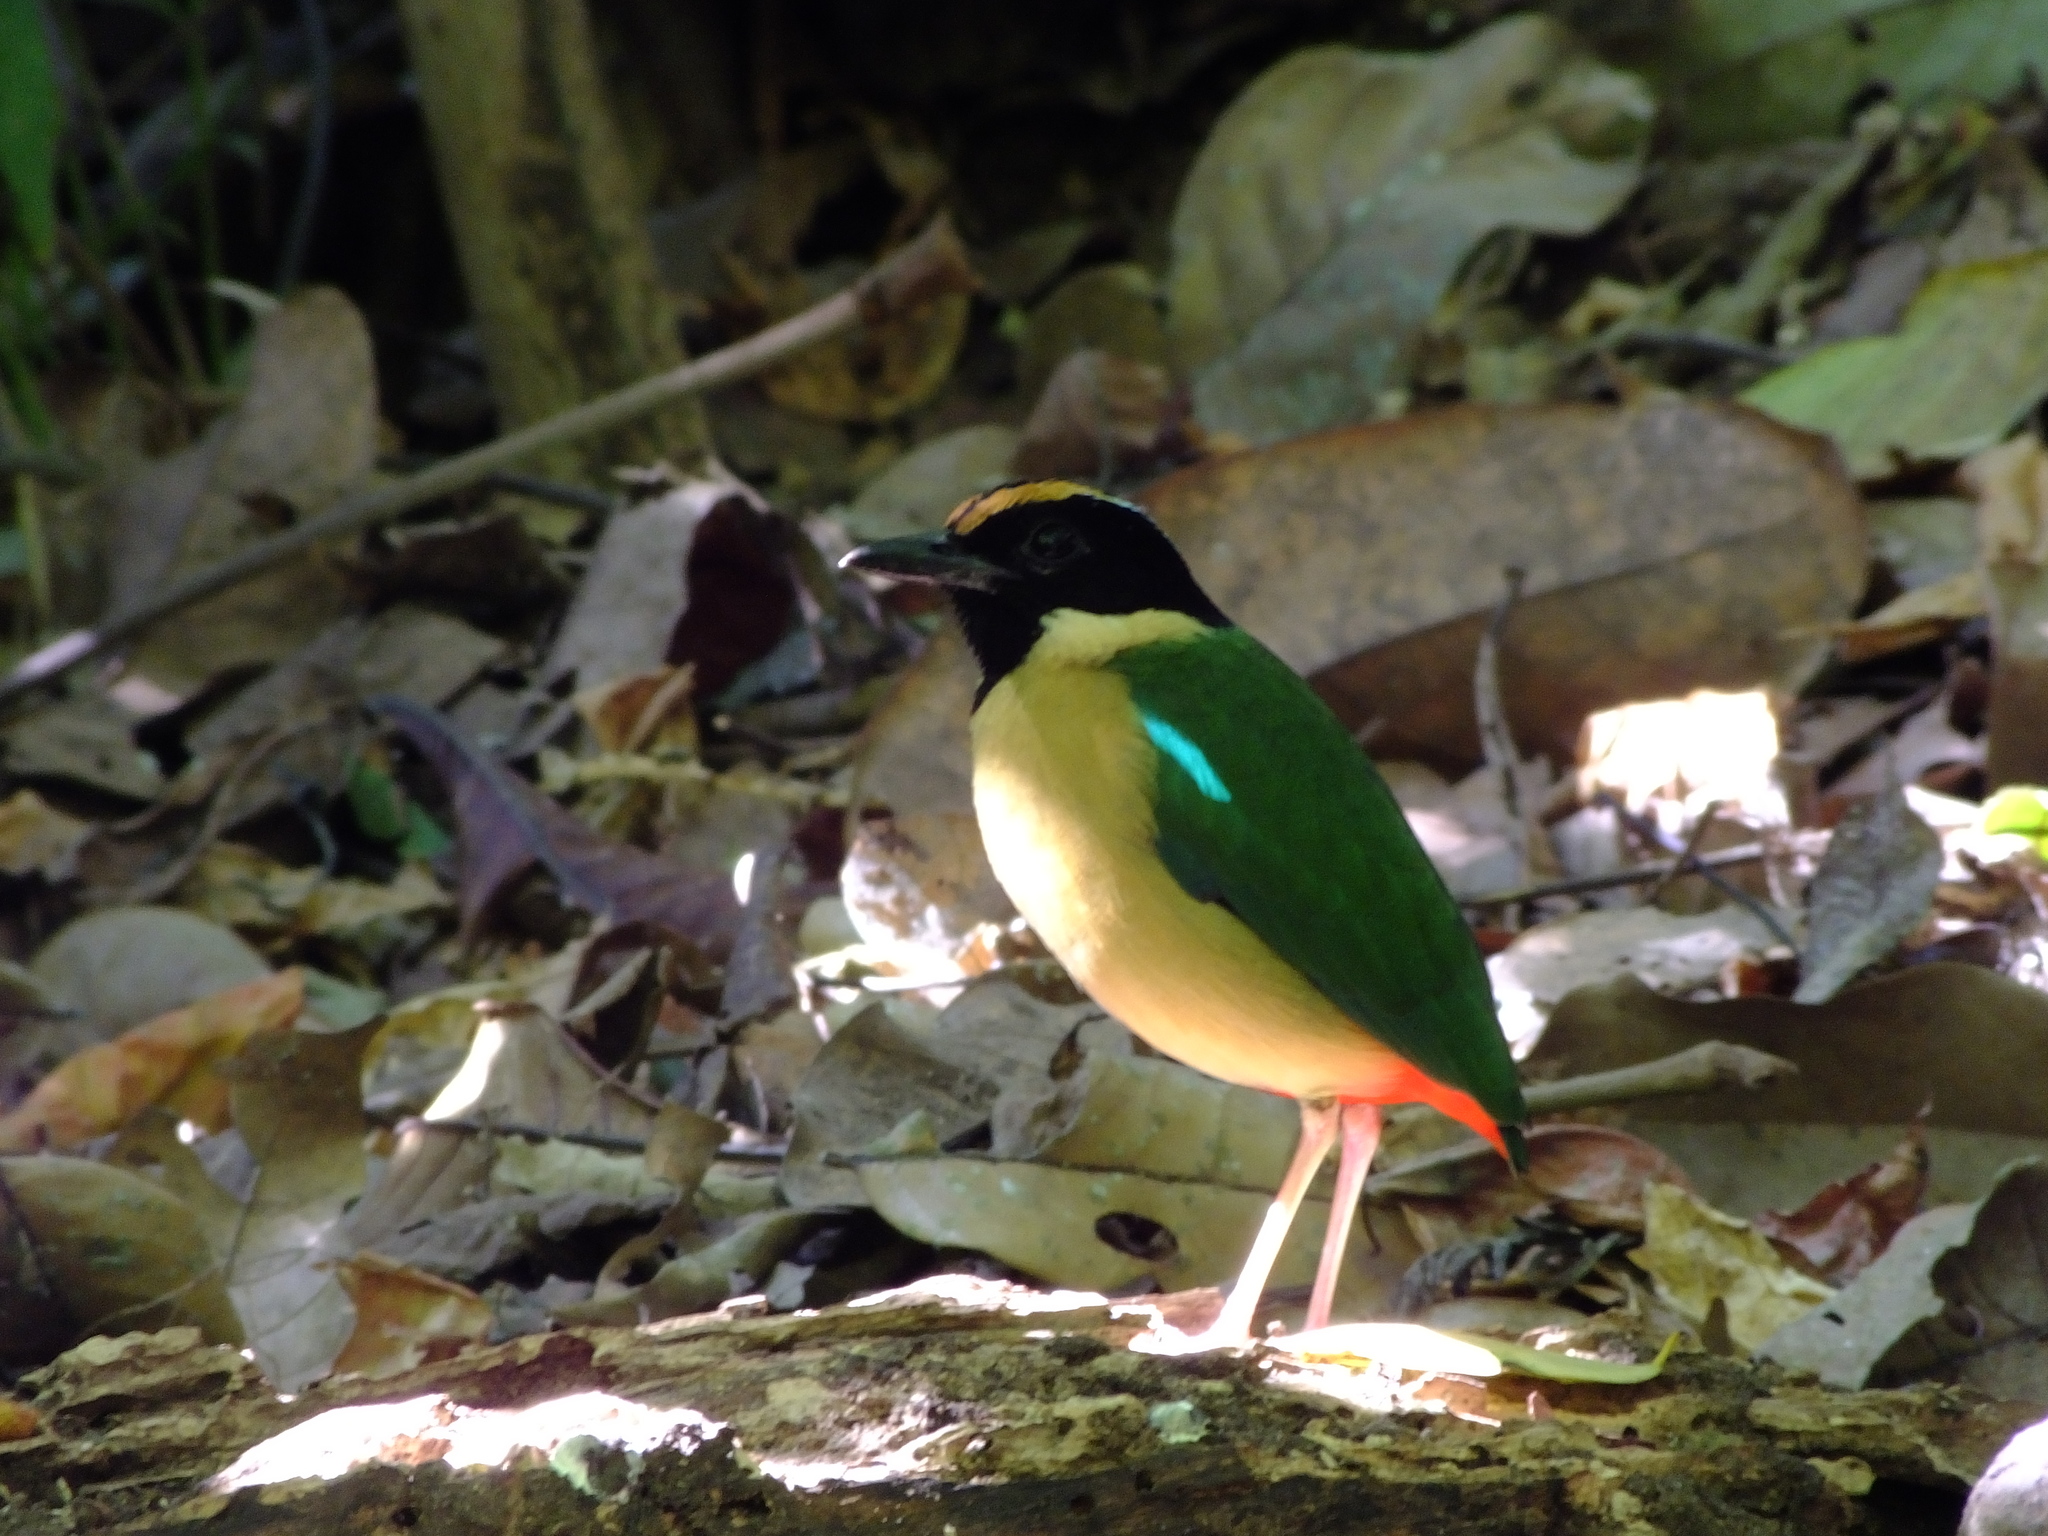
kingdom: Animalia
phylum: Chordata
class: Aves
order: Passeriformes
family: Pittidae
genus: Pitta
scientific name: Pitta concinna
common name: Ornate pitta
